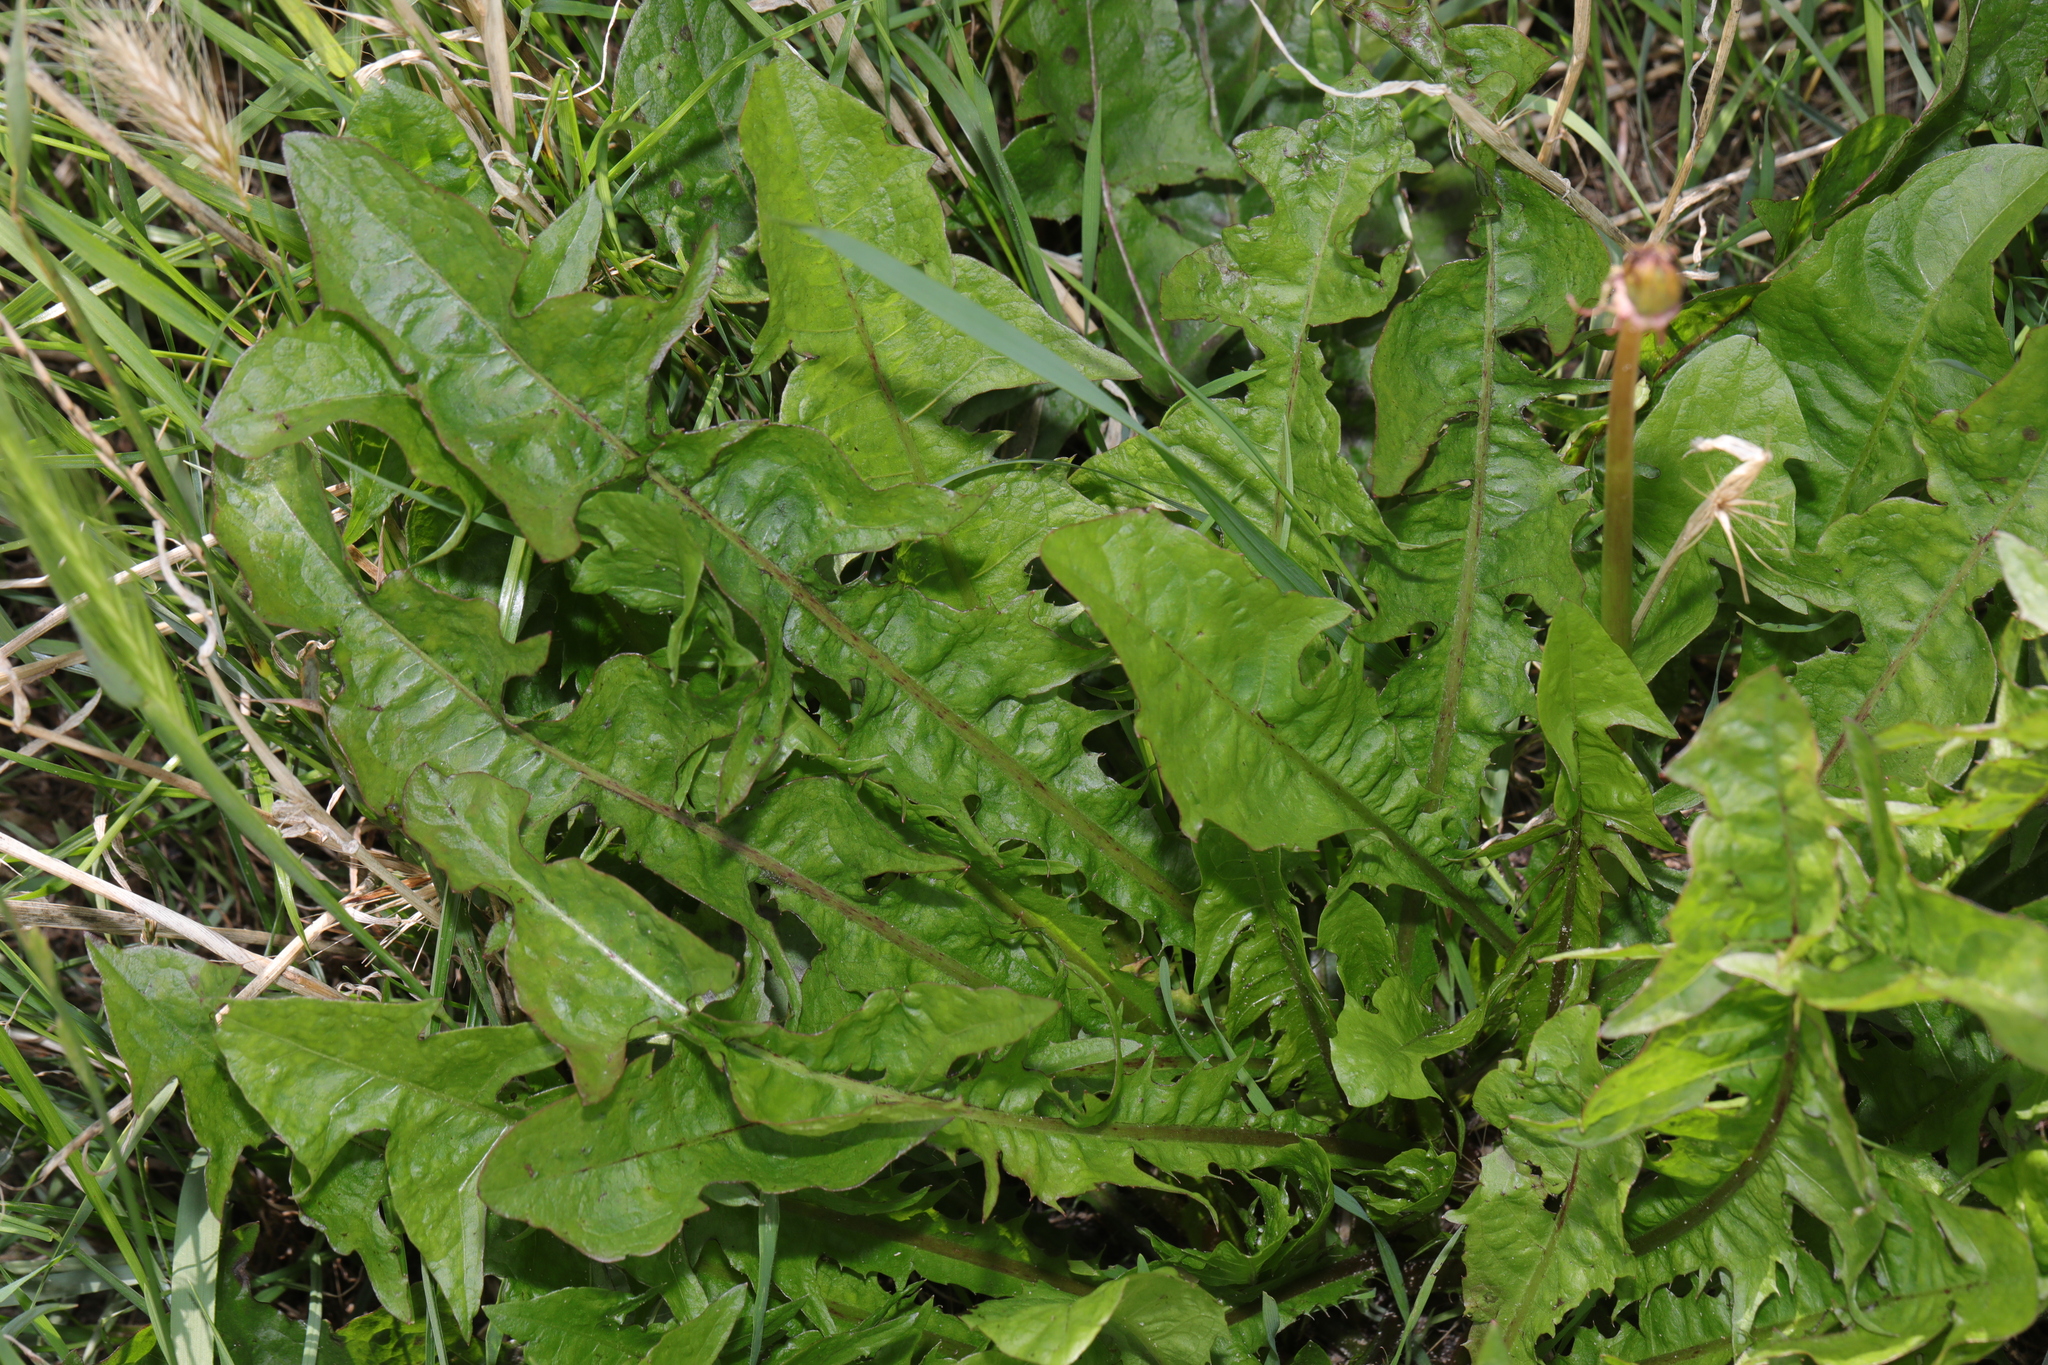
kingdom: Plantae
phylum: Tracheophyta
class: Magnoliopsida
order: Asterales
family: Asteraceae
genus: Taraxacum
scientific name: Taraxacum officinale
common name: Common dandelion
